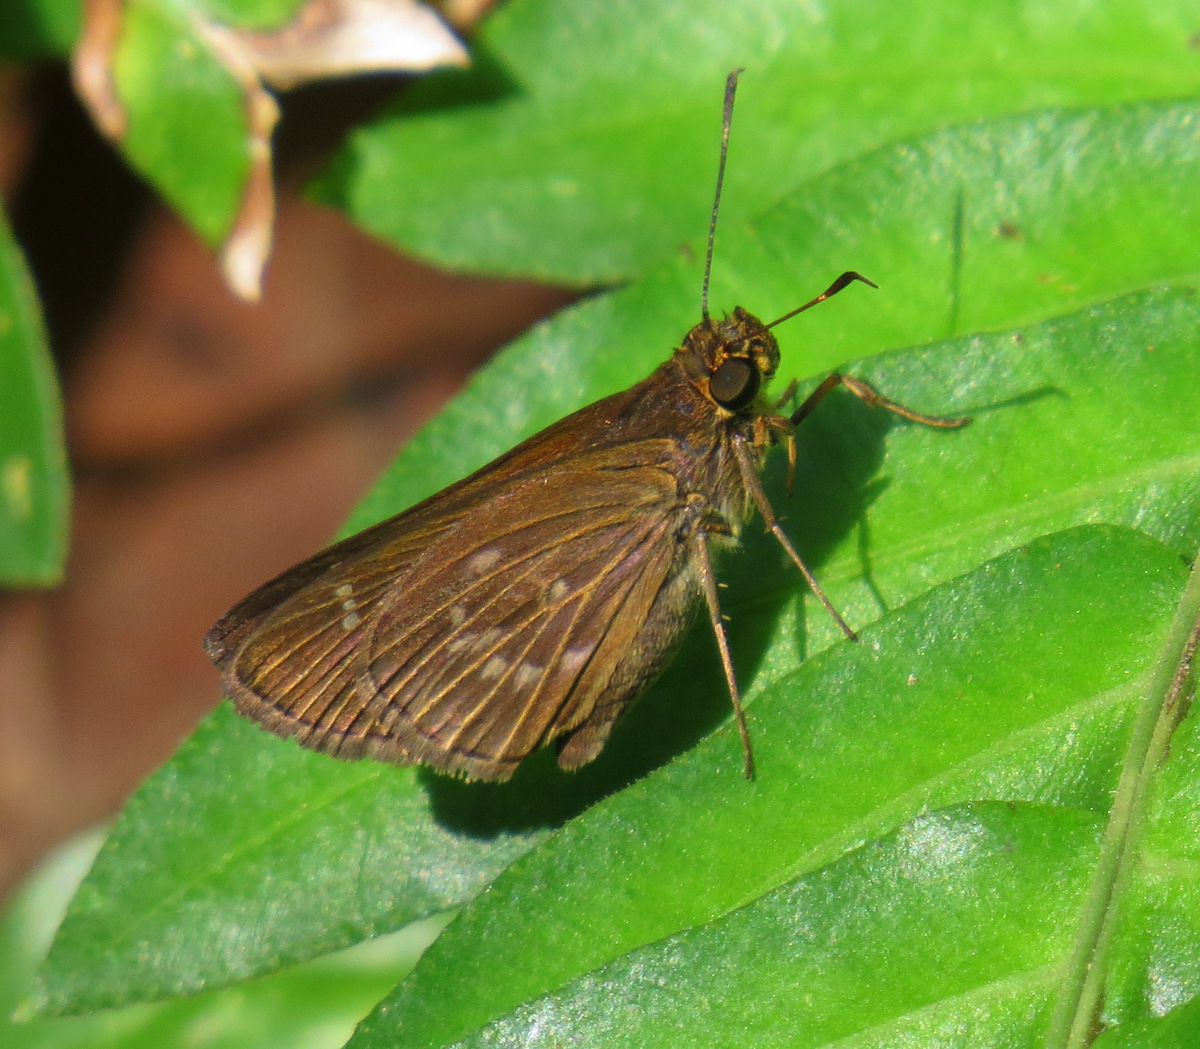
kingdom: Animalia
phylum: Arthropoda
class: Insecta
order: Lepidoptera
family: Hesperiidae
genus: Morys
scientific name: Morys geisa
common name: Geisa skipper
